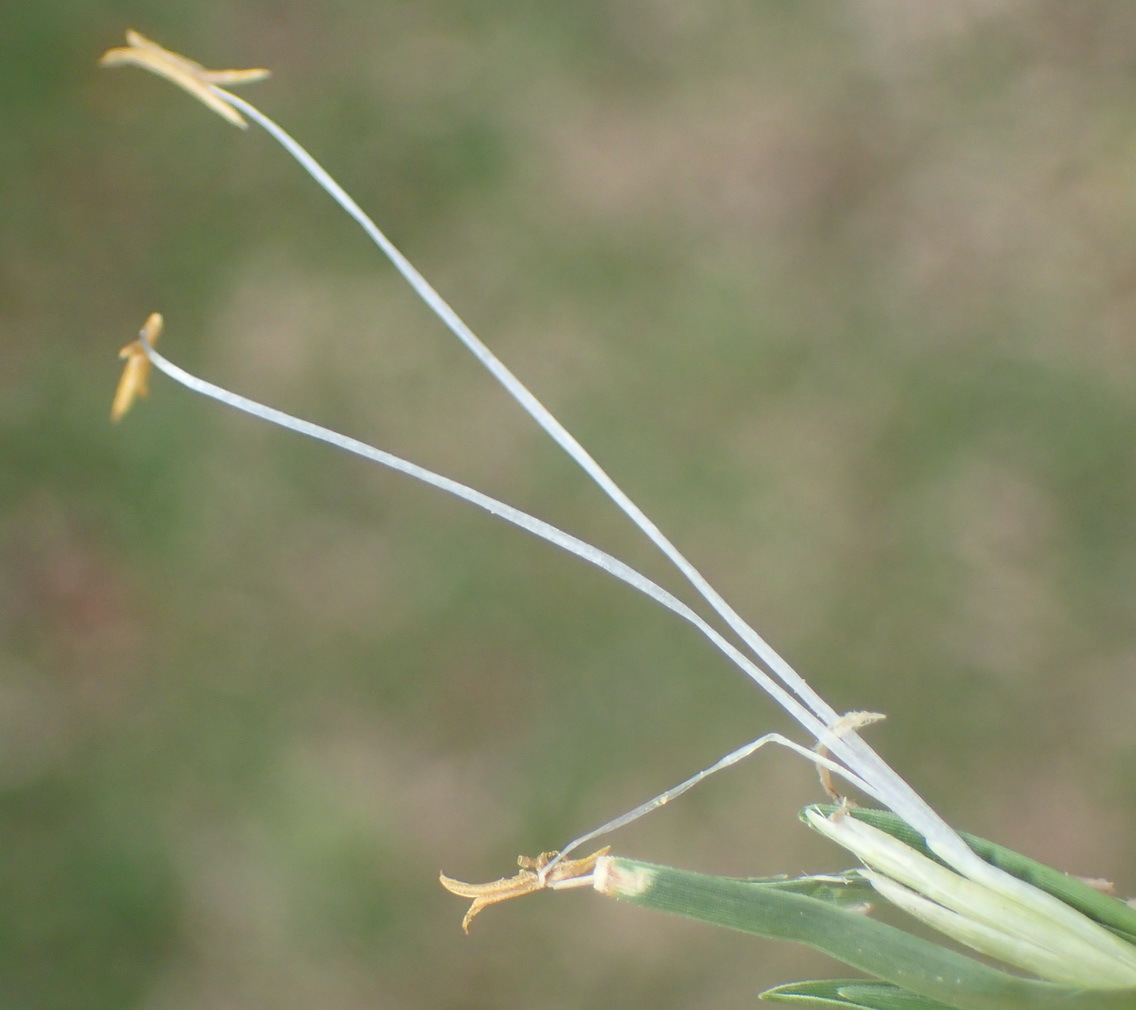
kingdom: Plantae
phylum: Tracheophyta
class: Liliopsida
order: Poales
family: Poaceae
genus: Cenchrus
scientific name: Cenchrus clandestinus
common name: Kikuyugrass
